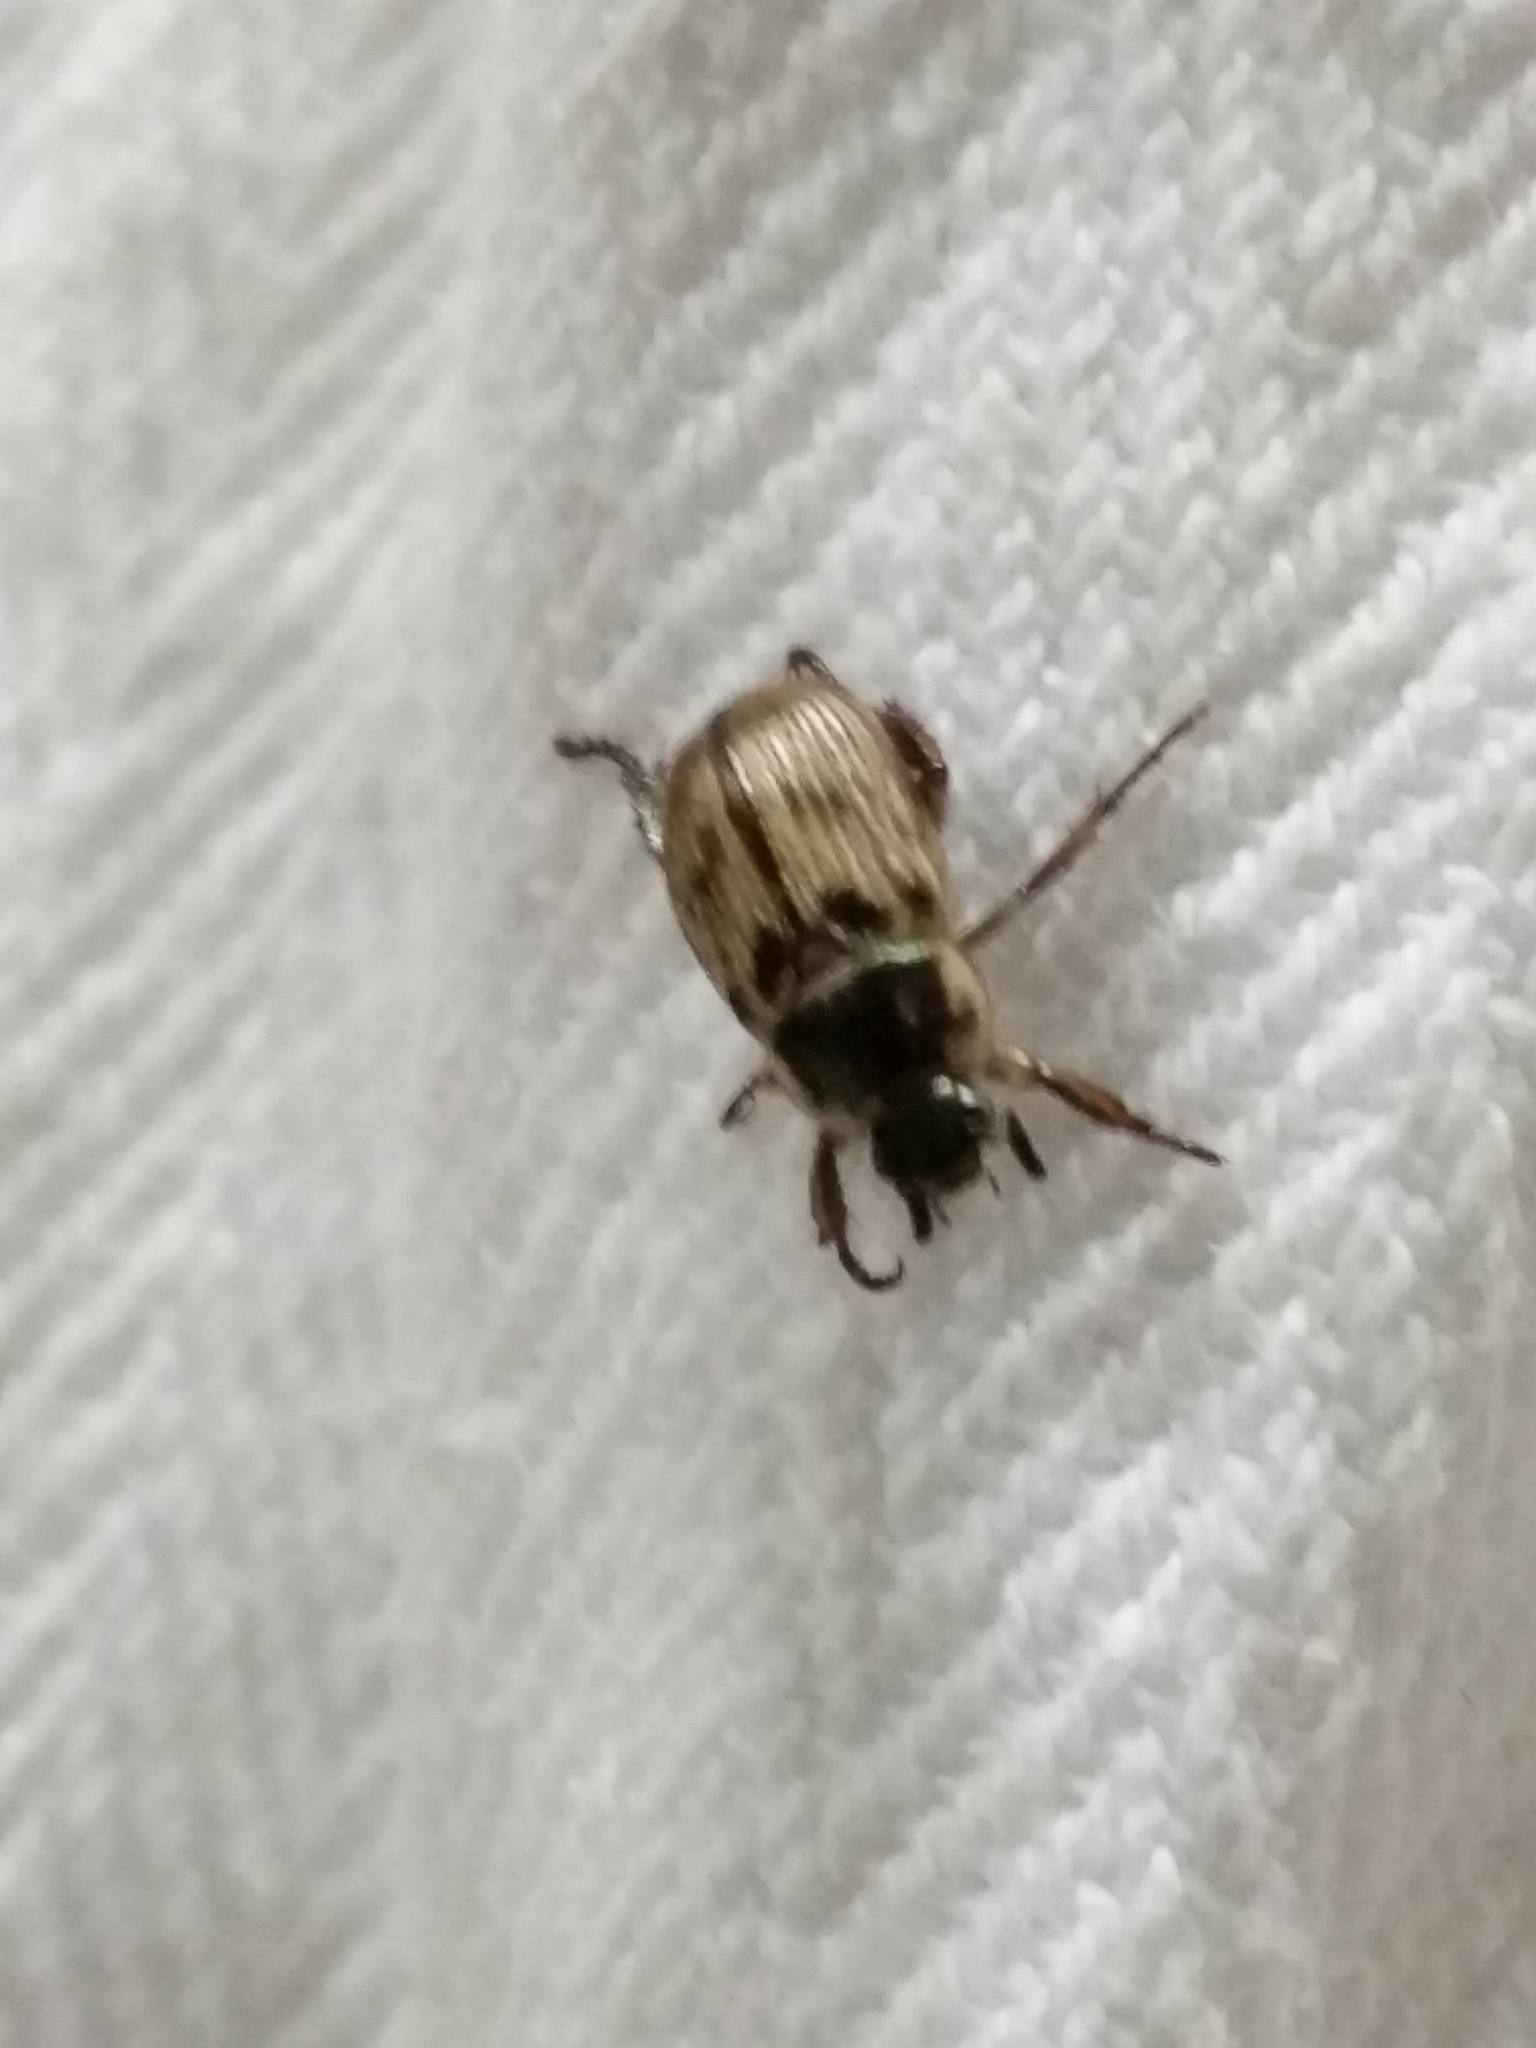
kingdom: Animalia
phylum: Arthropoda
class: Insecta
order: Coleoptera
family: Scarabaeidae
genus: Exomala
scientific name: Exomala orientalis
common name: Oriental beetle
